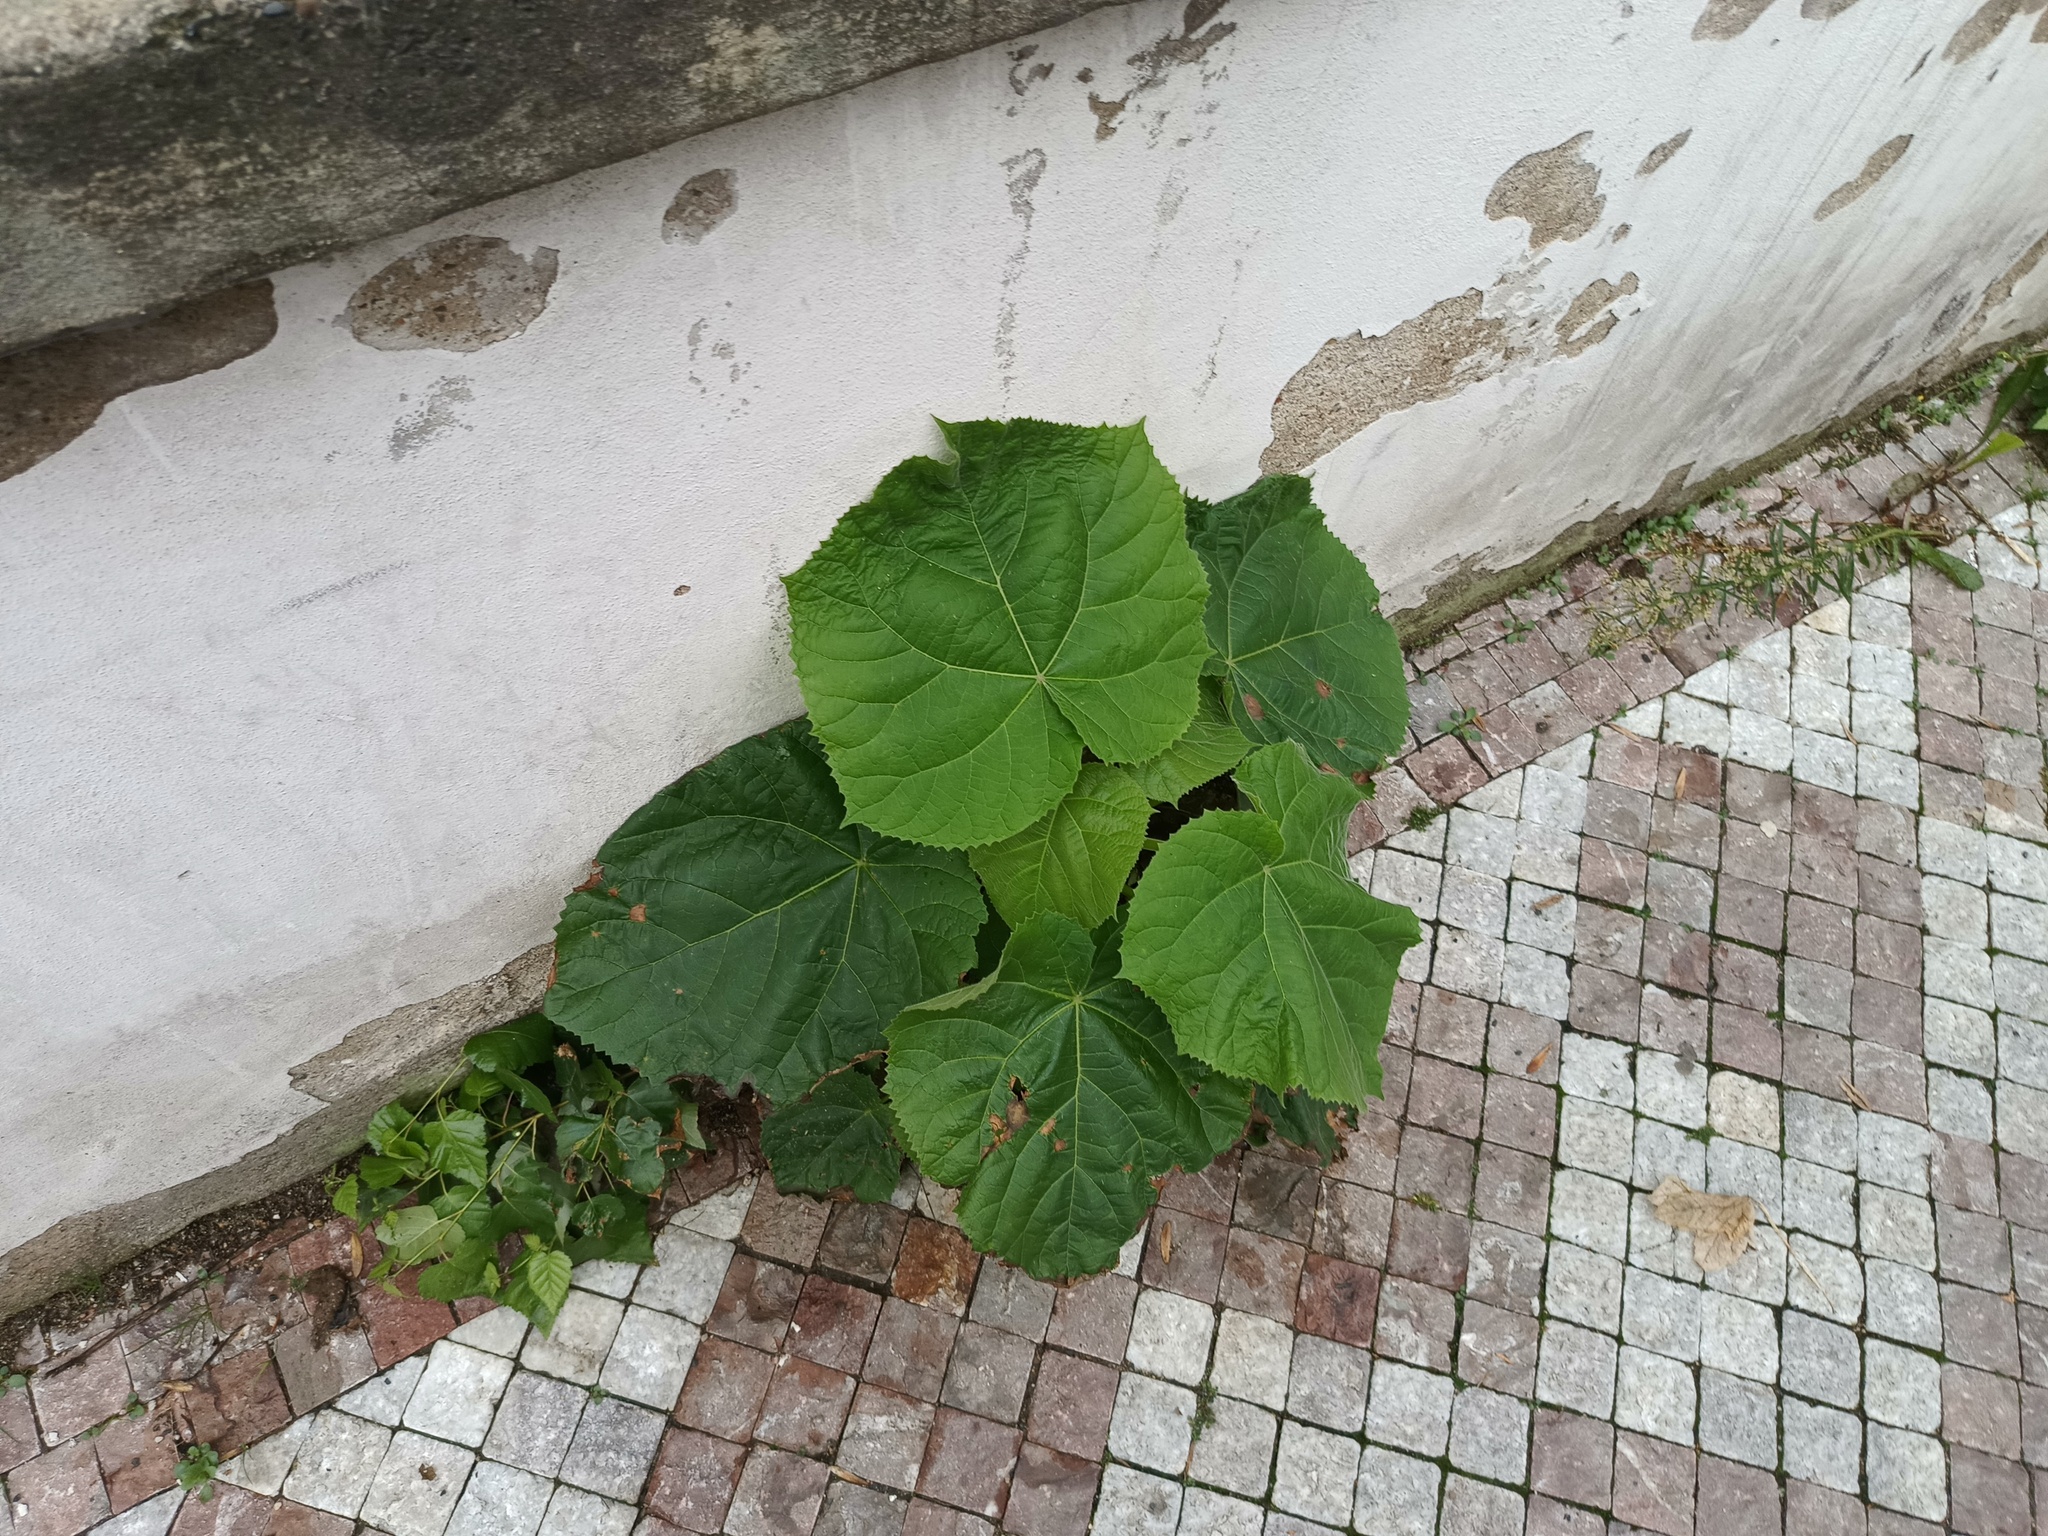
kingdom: Plantae
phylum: Tracheophyta
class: Magnoliopsida
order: Lamiales
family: Paulowniaceae
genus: Paulownia
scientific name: Paulownia tomentosa
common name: Foxglove-tree
